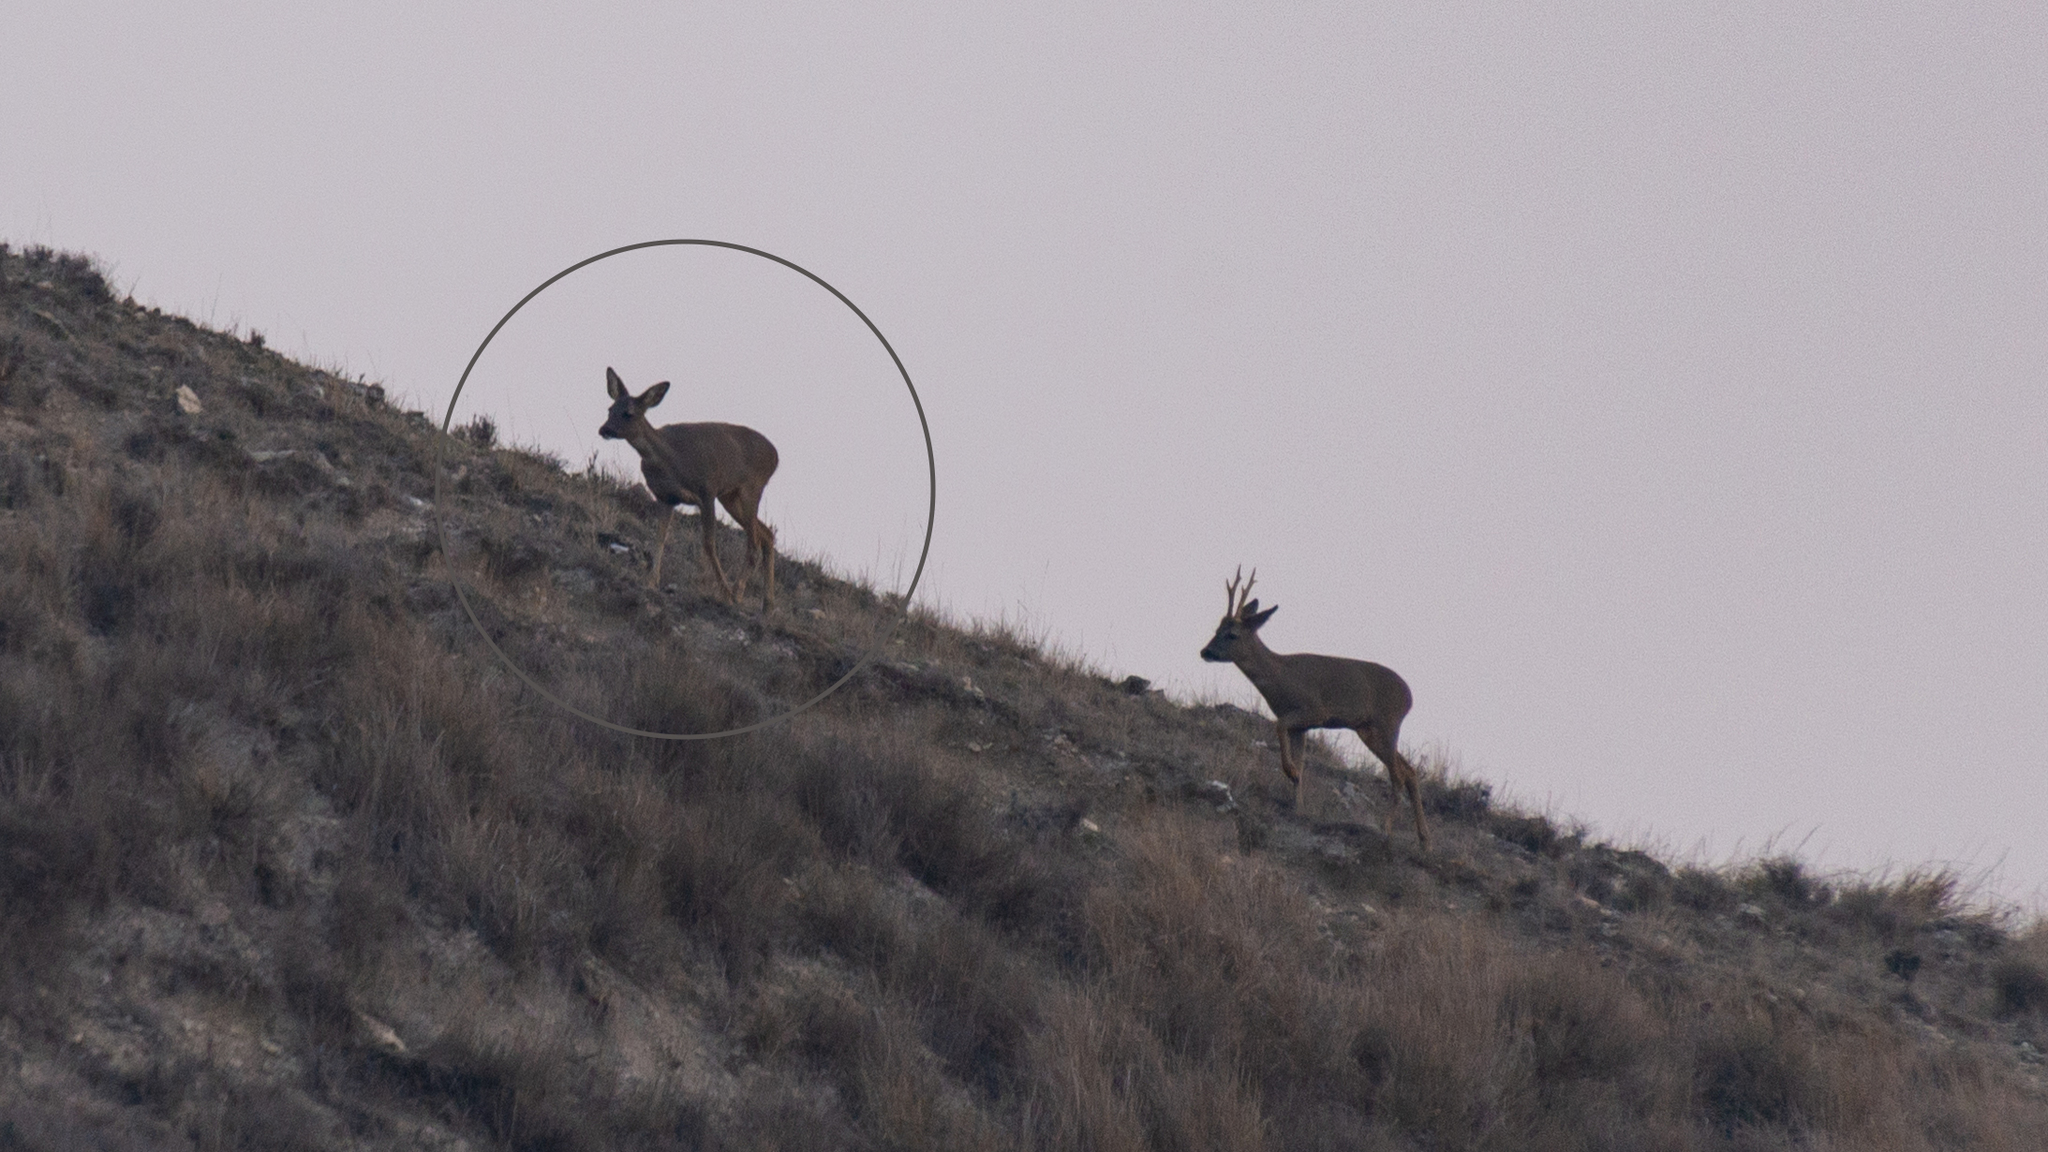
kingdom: Animalia
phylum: Chordata
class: Mammalia
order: Artiodactyla
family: Cervidae
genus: Capreolus
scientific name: Capreolus capreolus
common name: Western roe deer
